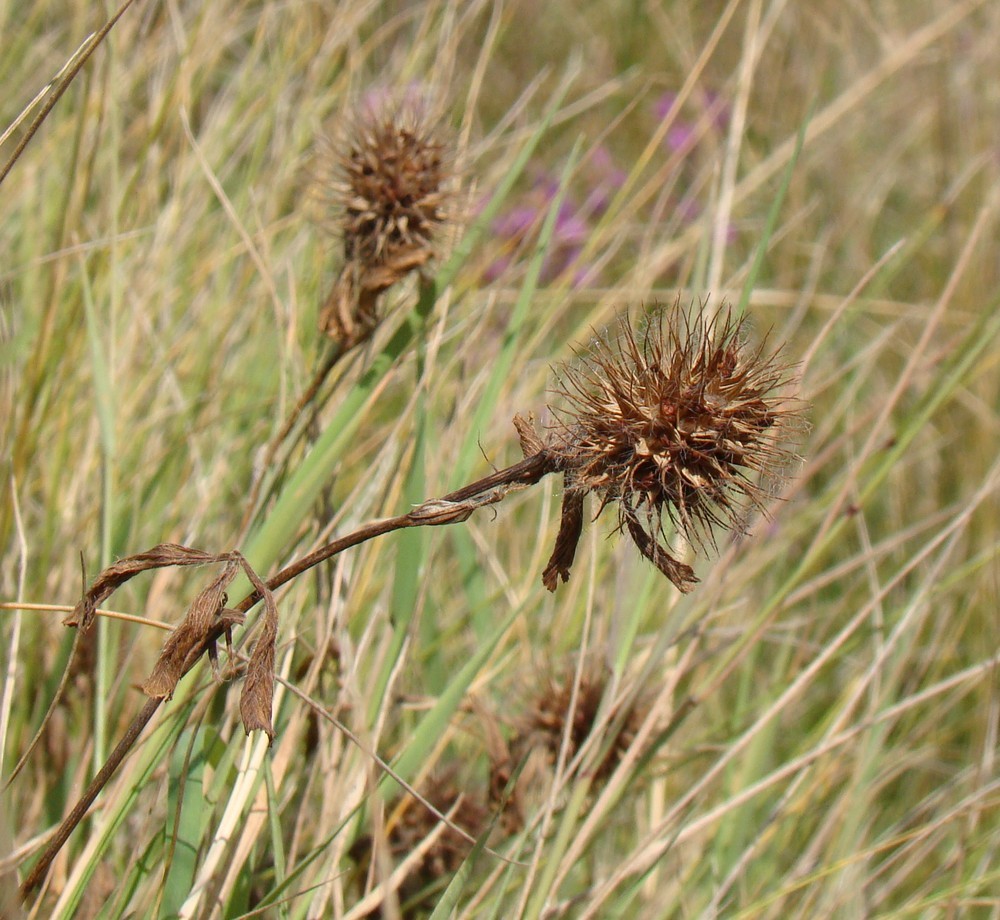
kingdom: Plantae
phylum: Tracheophyta
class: Magnoliopsida
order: Fabales
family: Fabaceae
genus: Trifolium
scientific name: Trifolium hirtum
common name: Rose clover
